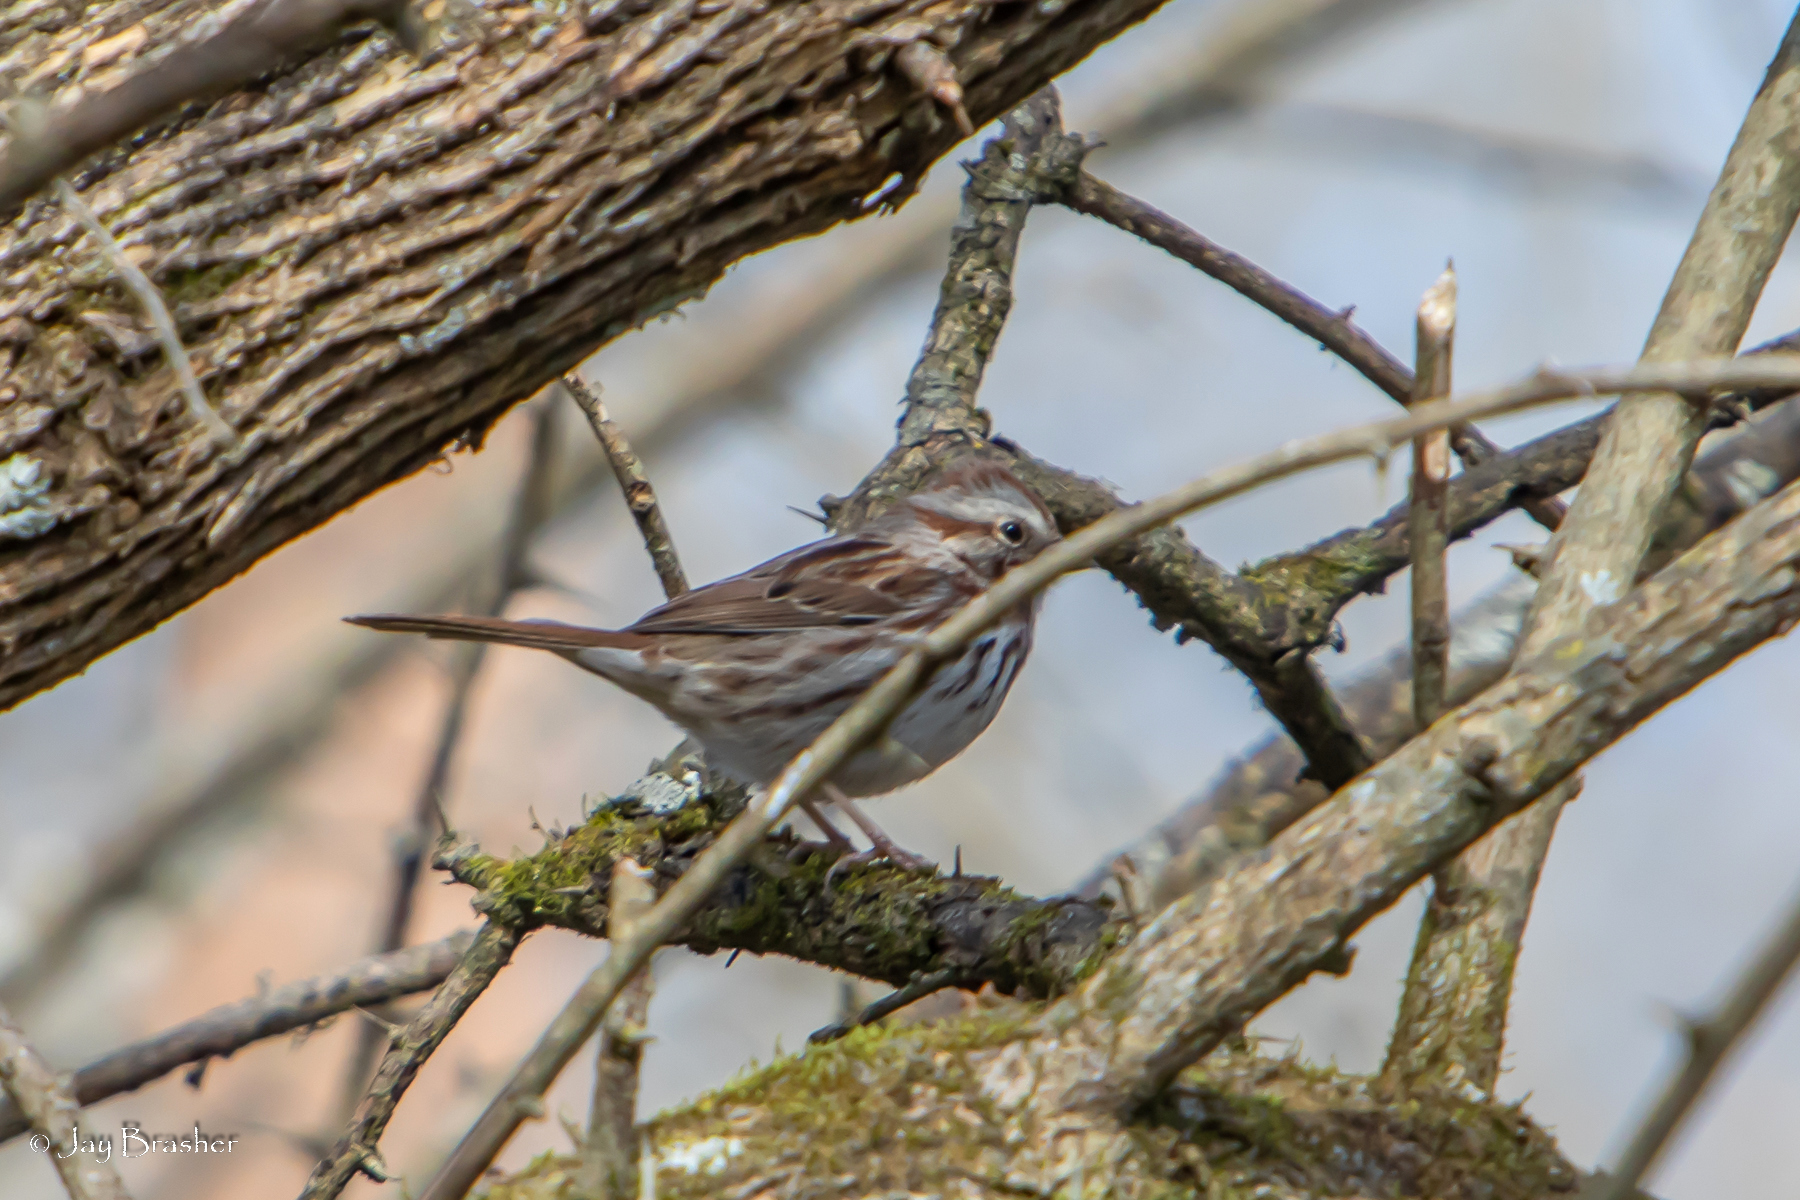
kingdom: Animalia
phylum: Chordata
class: Aves
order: Passeriformes
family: Passerellidae
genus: Melospiza
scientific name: Melospiza melodia
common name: Song sparrow
